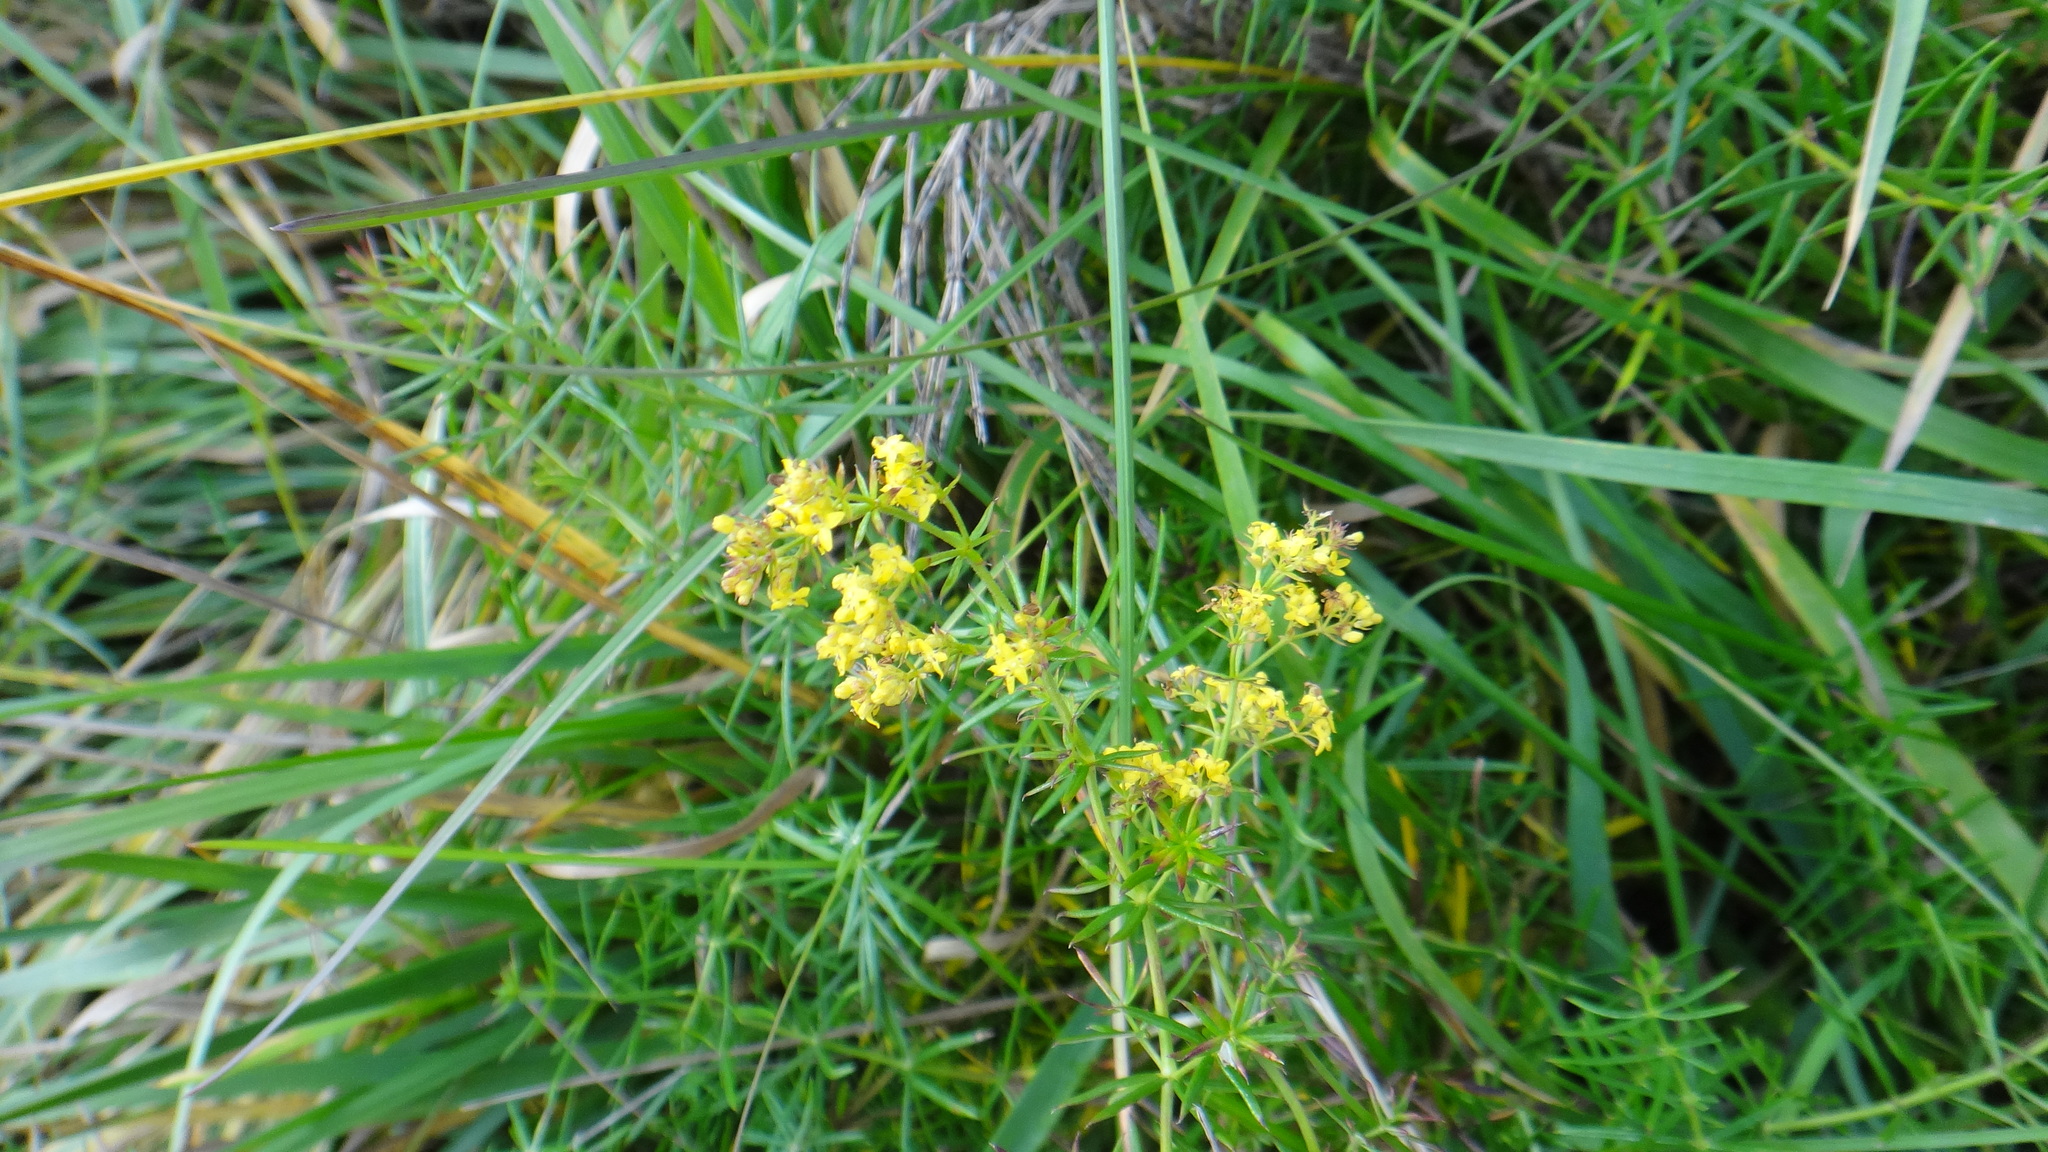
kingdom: Plantae
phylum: Tracheophyta
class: Magnoliopsida
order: Gentianales
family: Rubiaceae
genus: Galium
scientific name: Galium verum
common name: Lady's bedstraw
